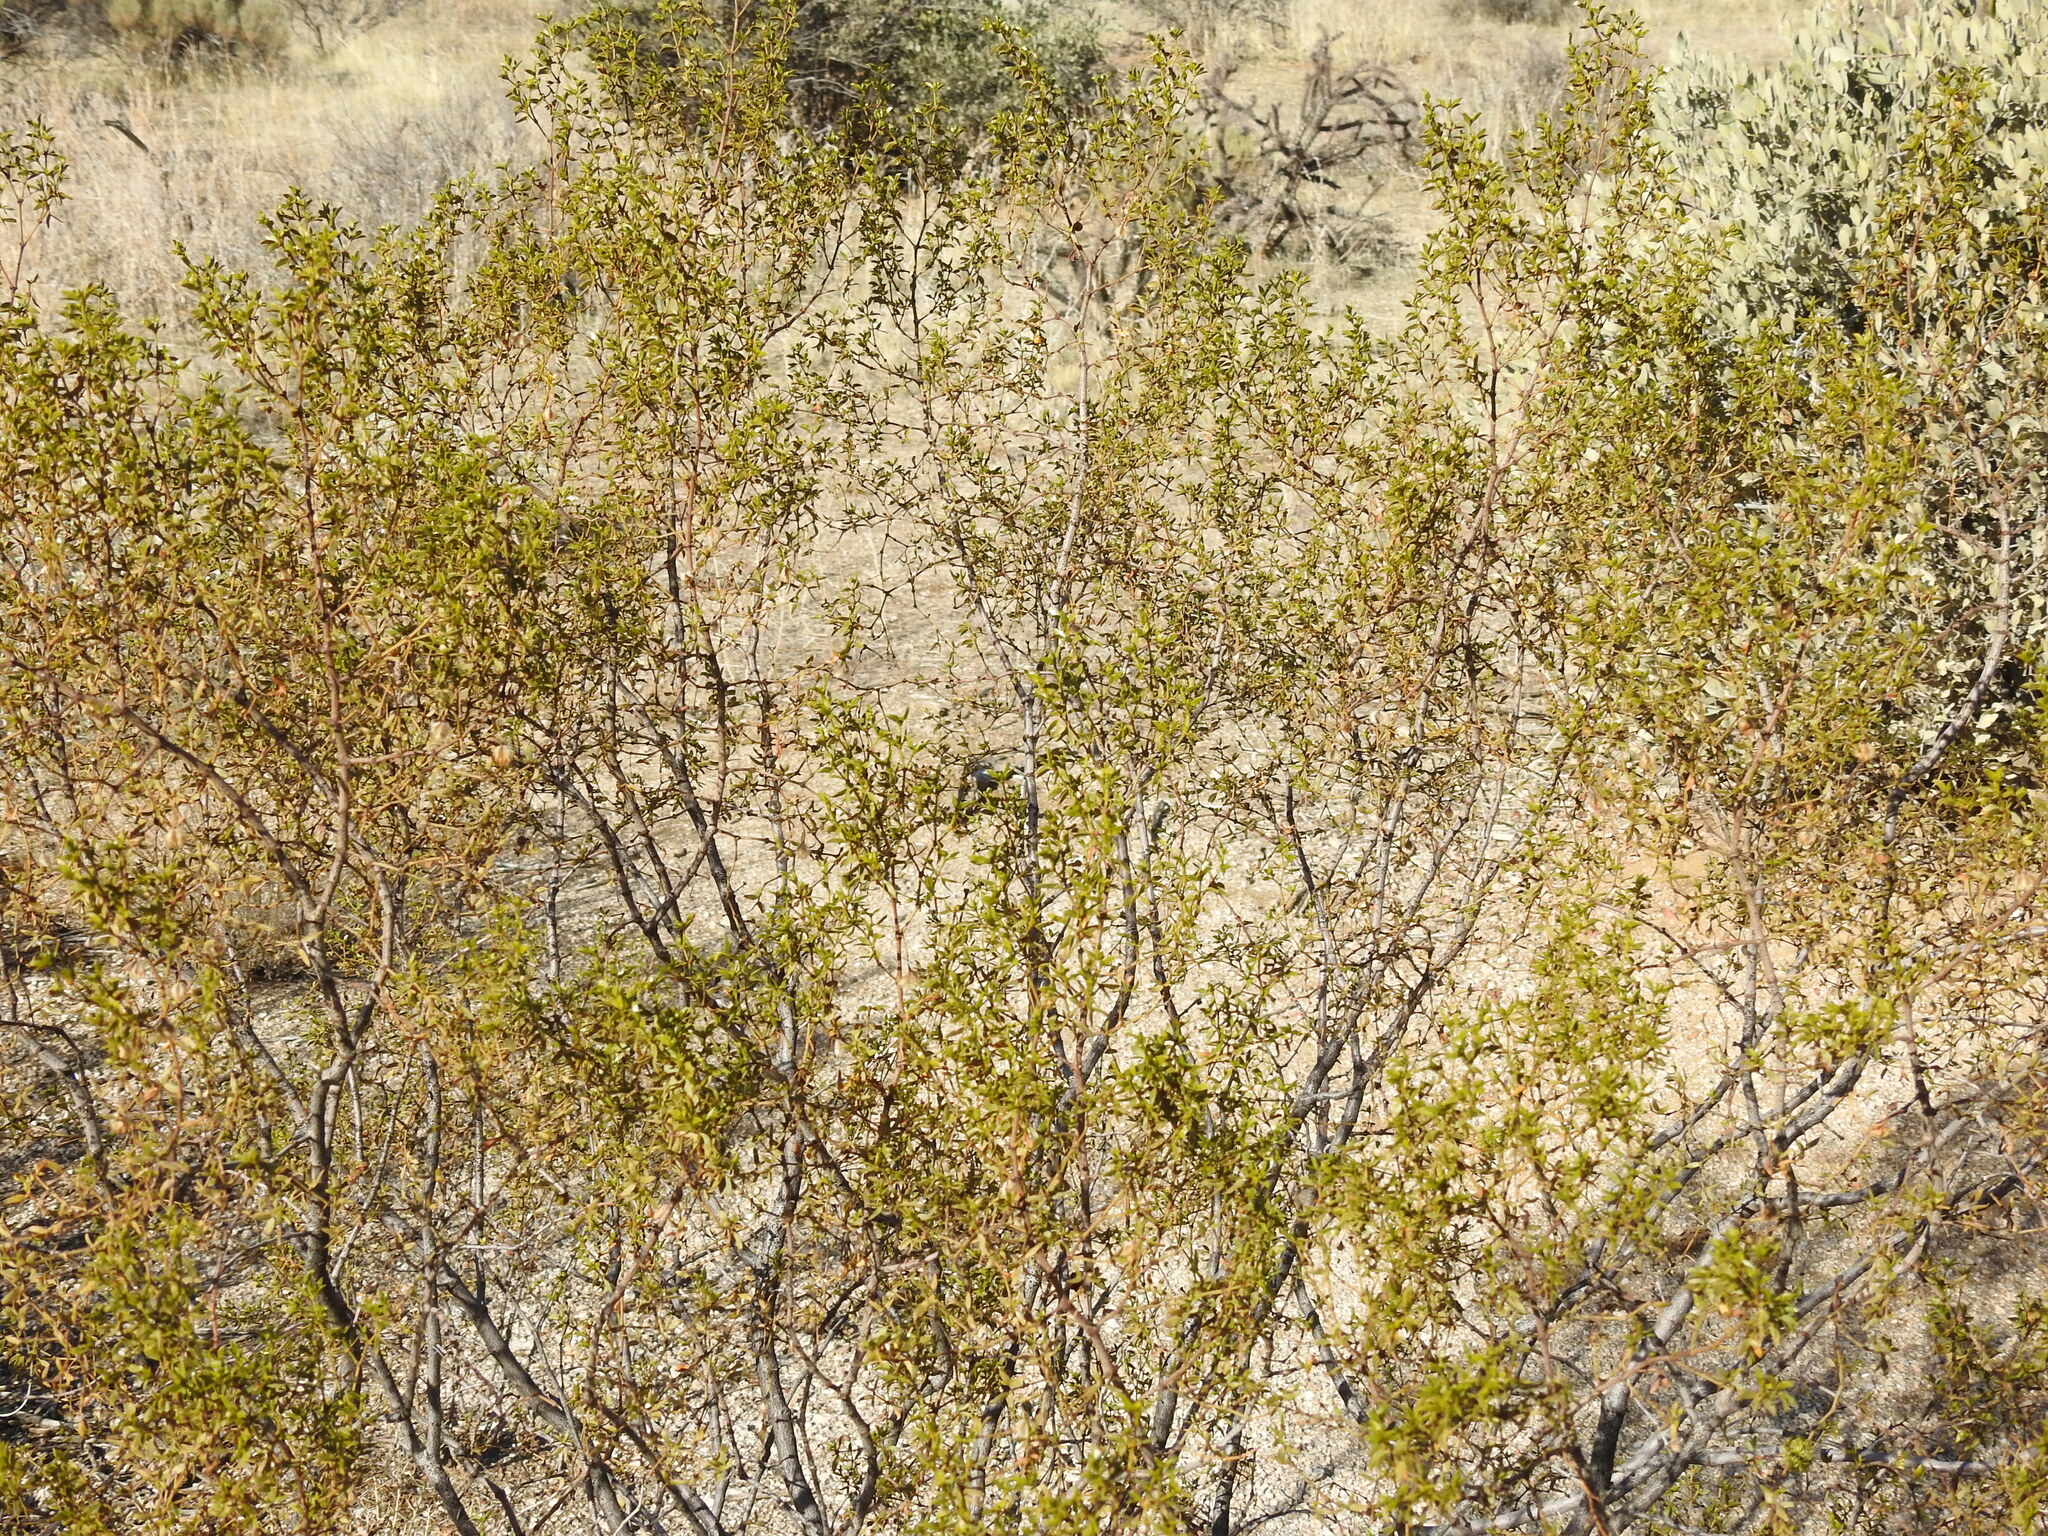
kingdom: Plantae
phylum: Tracheophyta
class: Magnoliopsida
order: Zygophyllales
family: Zygophyllaceae
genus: Larrea
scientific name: Larrea tridentata
